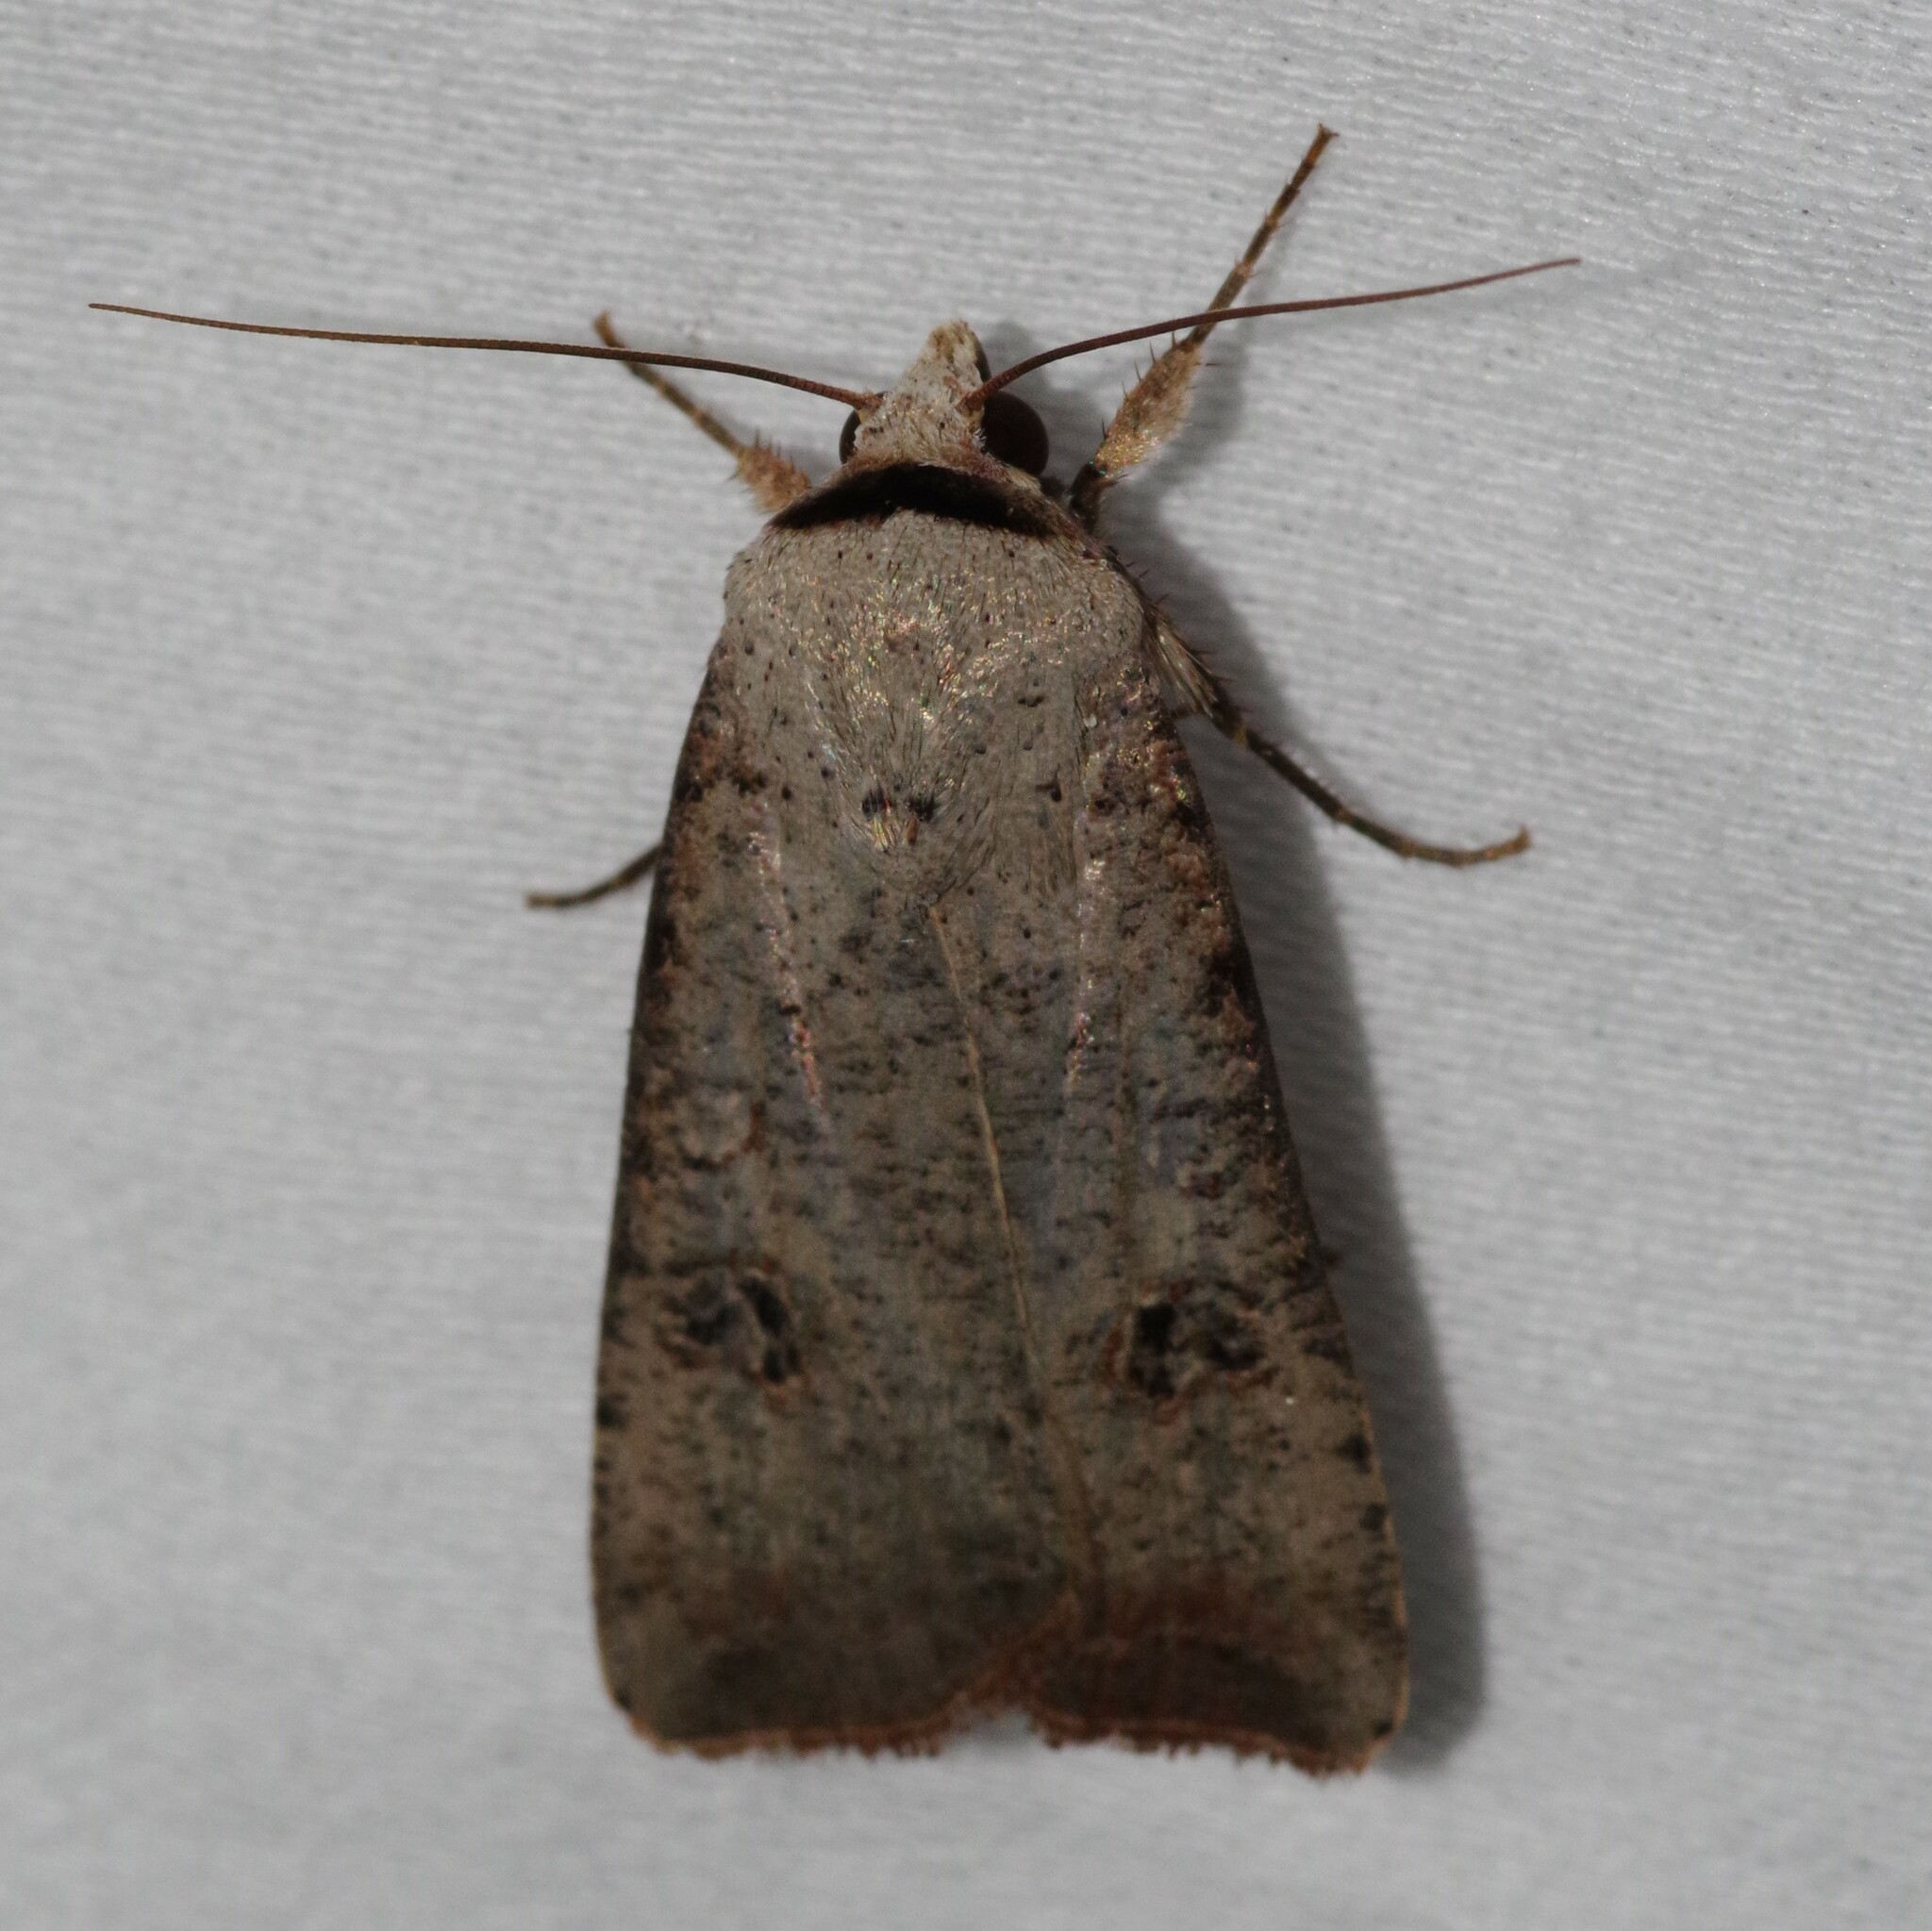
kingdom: Animalia
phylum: Arthropoda
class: Insecta
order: Lepidoptera
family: Noctuidae
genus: Anicla
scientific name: Anicla infecta
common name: Green cutworm
